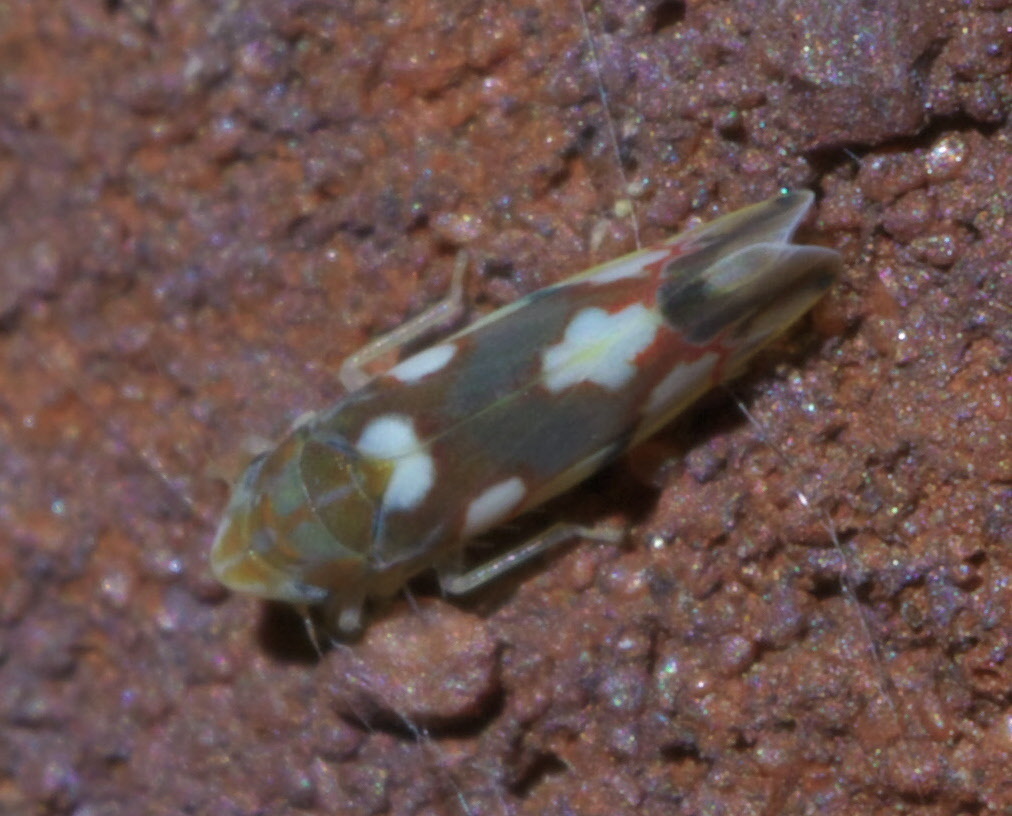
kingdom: Animalia
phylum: Arthropoda
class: Insecta
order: Hemiptera
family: Cicadellidae
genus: Erythroneura
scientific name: Erythroneura elegans
